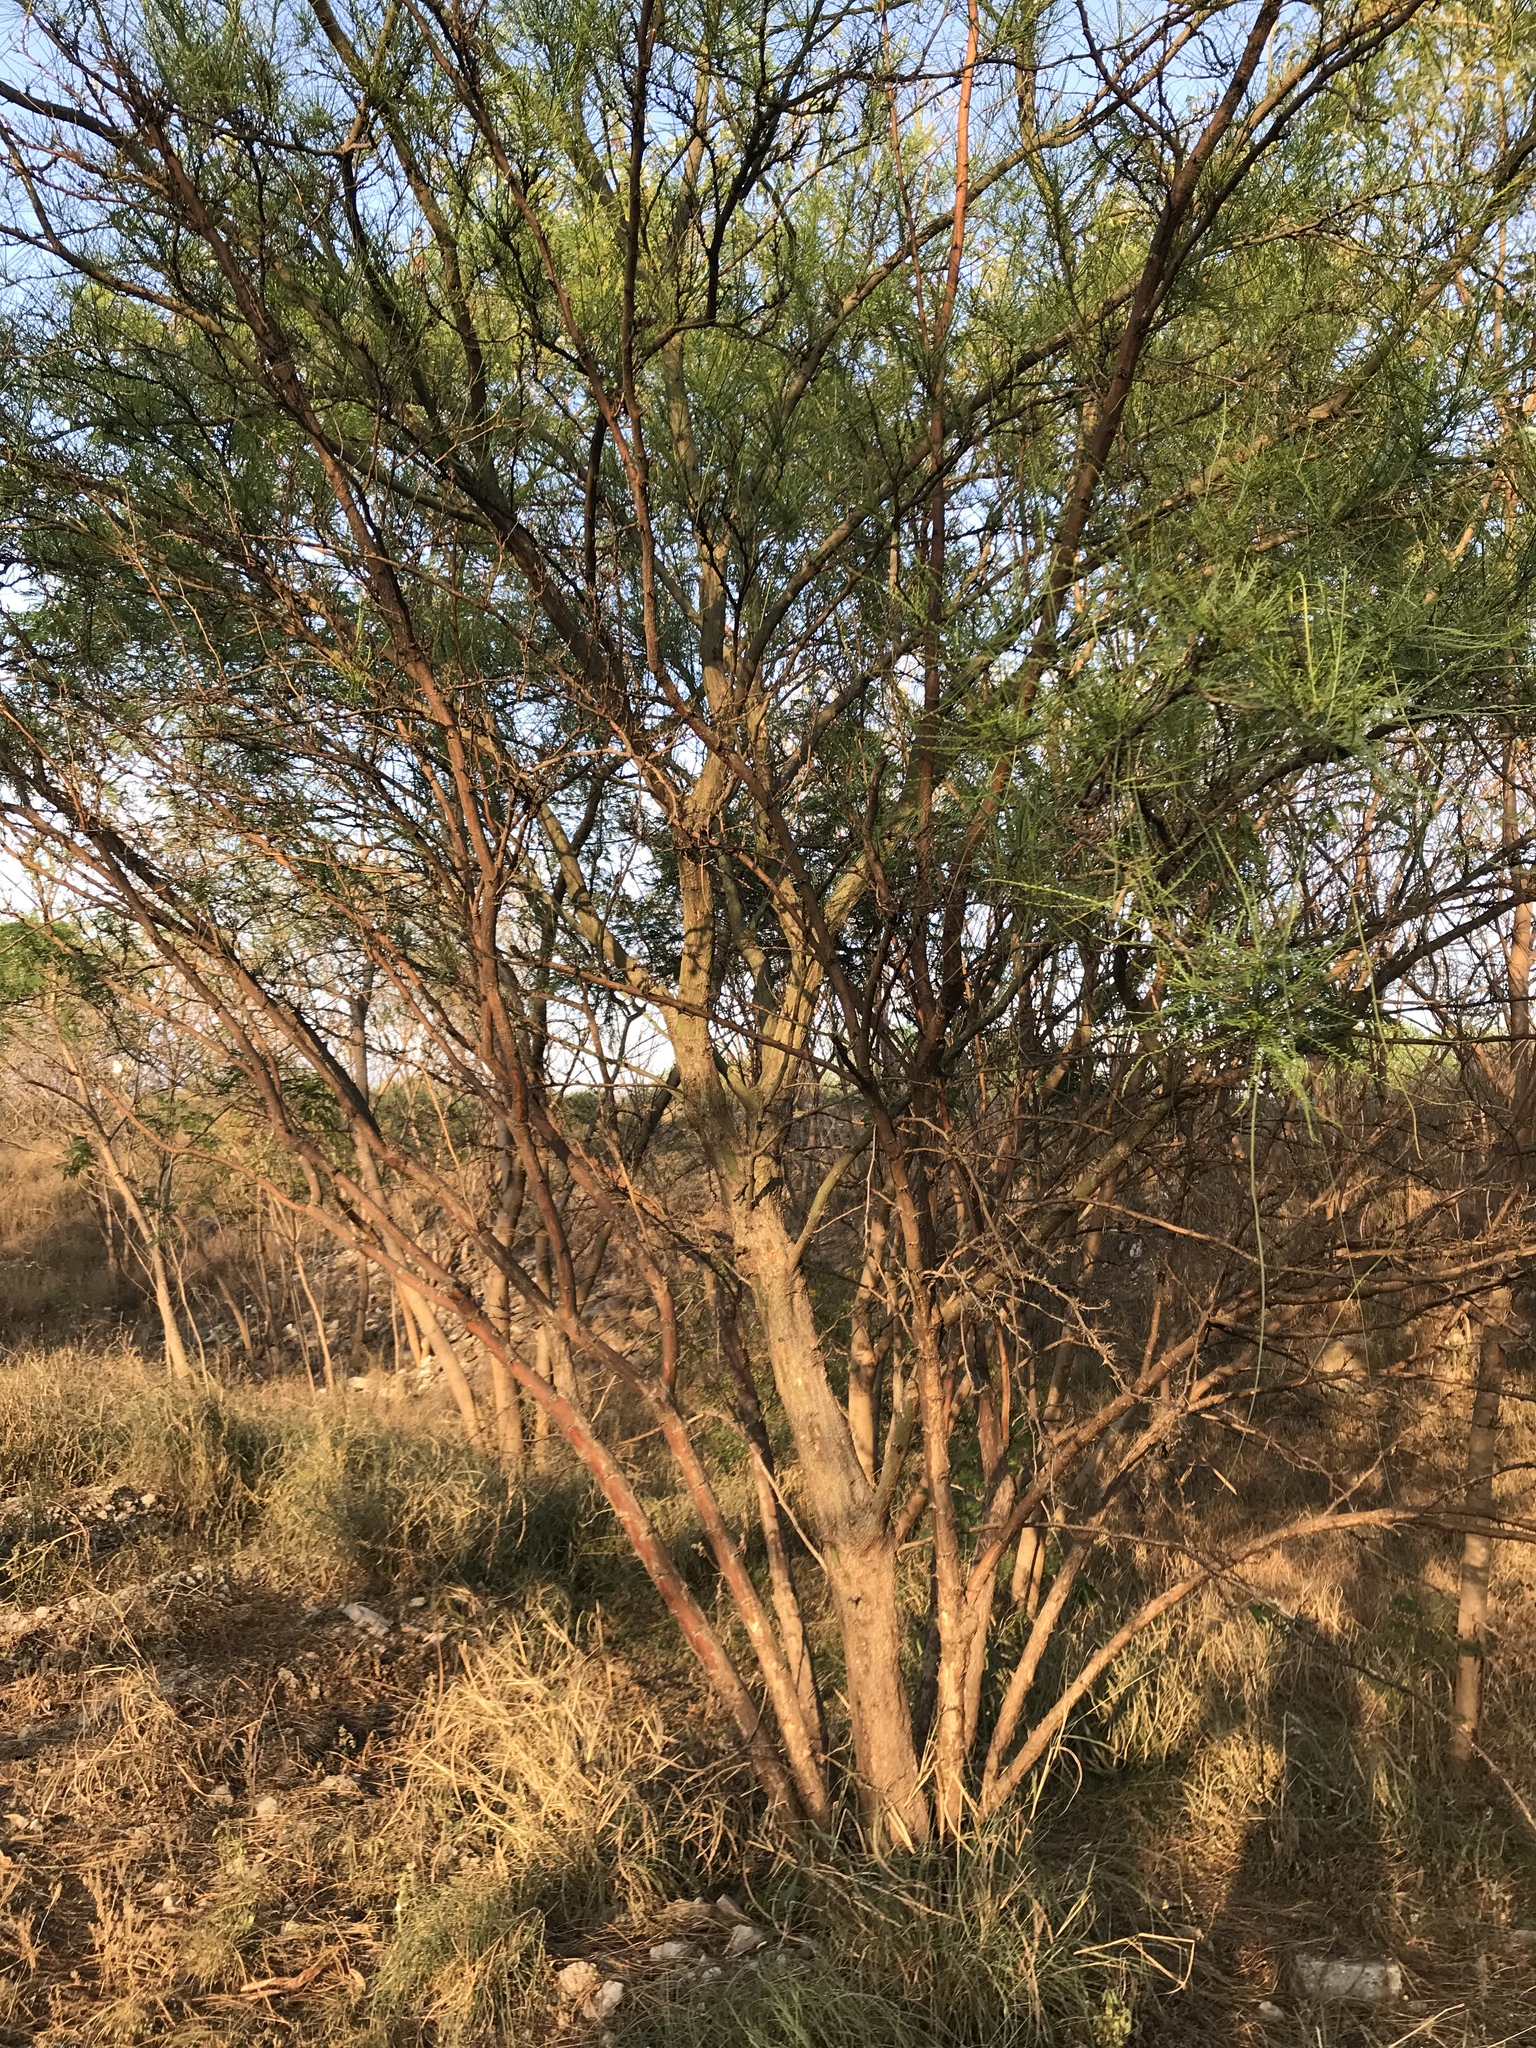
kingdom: Plantae
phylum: Tracheophyta
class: Magnoliopsida
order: Fabales
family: Fabaceae
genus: Parkinsonia
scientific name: Parkinsonia aculeata
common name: Jerusalem thorn
